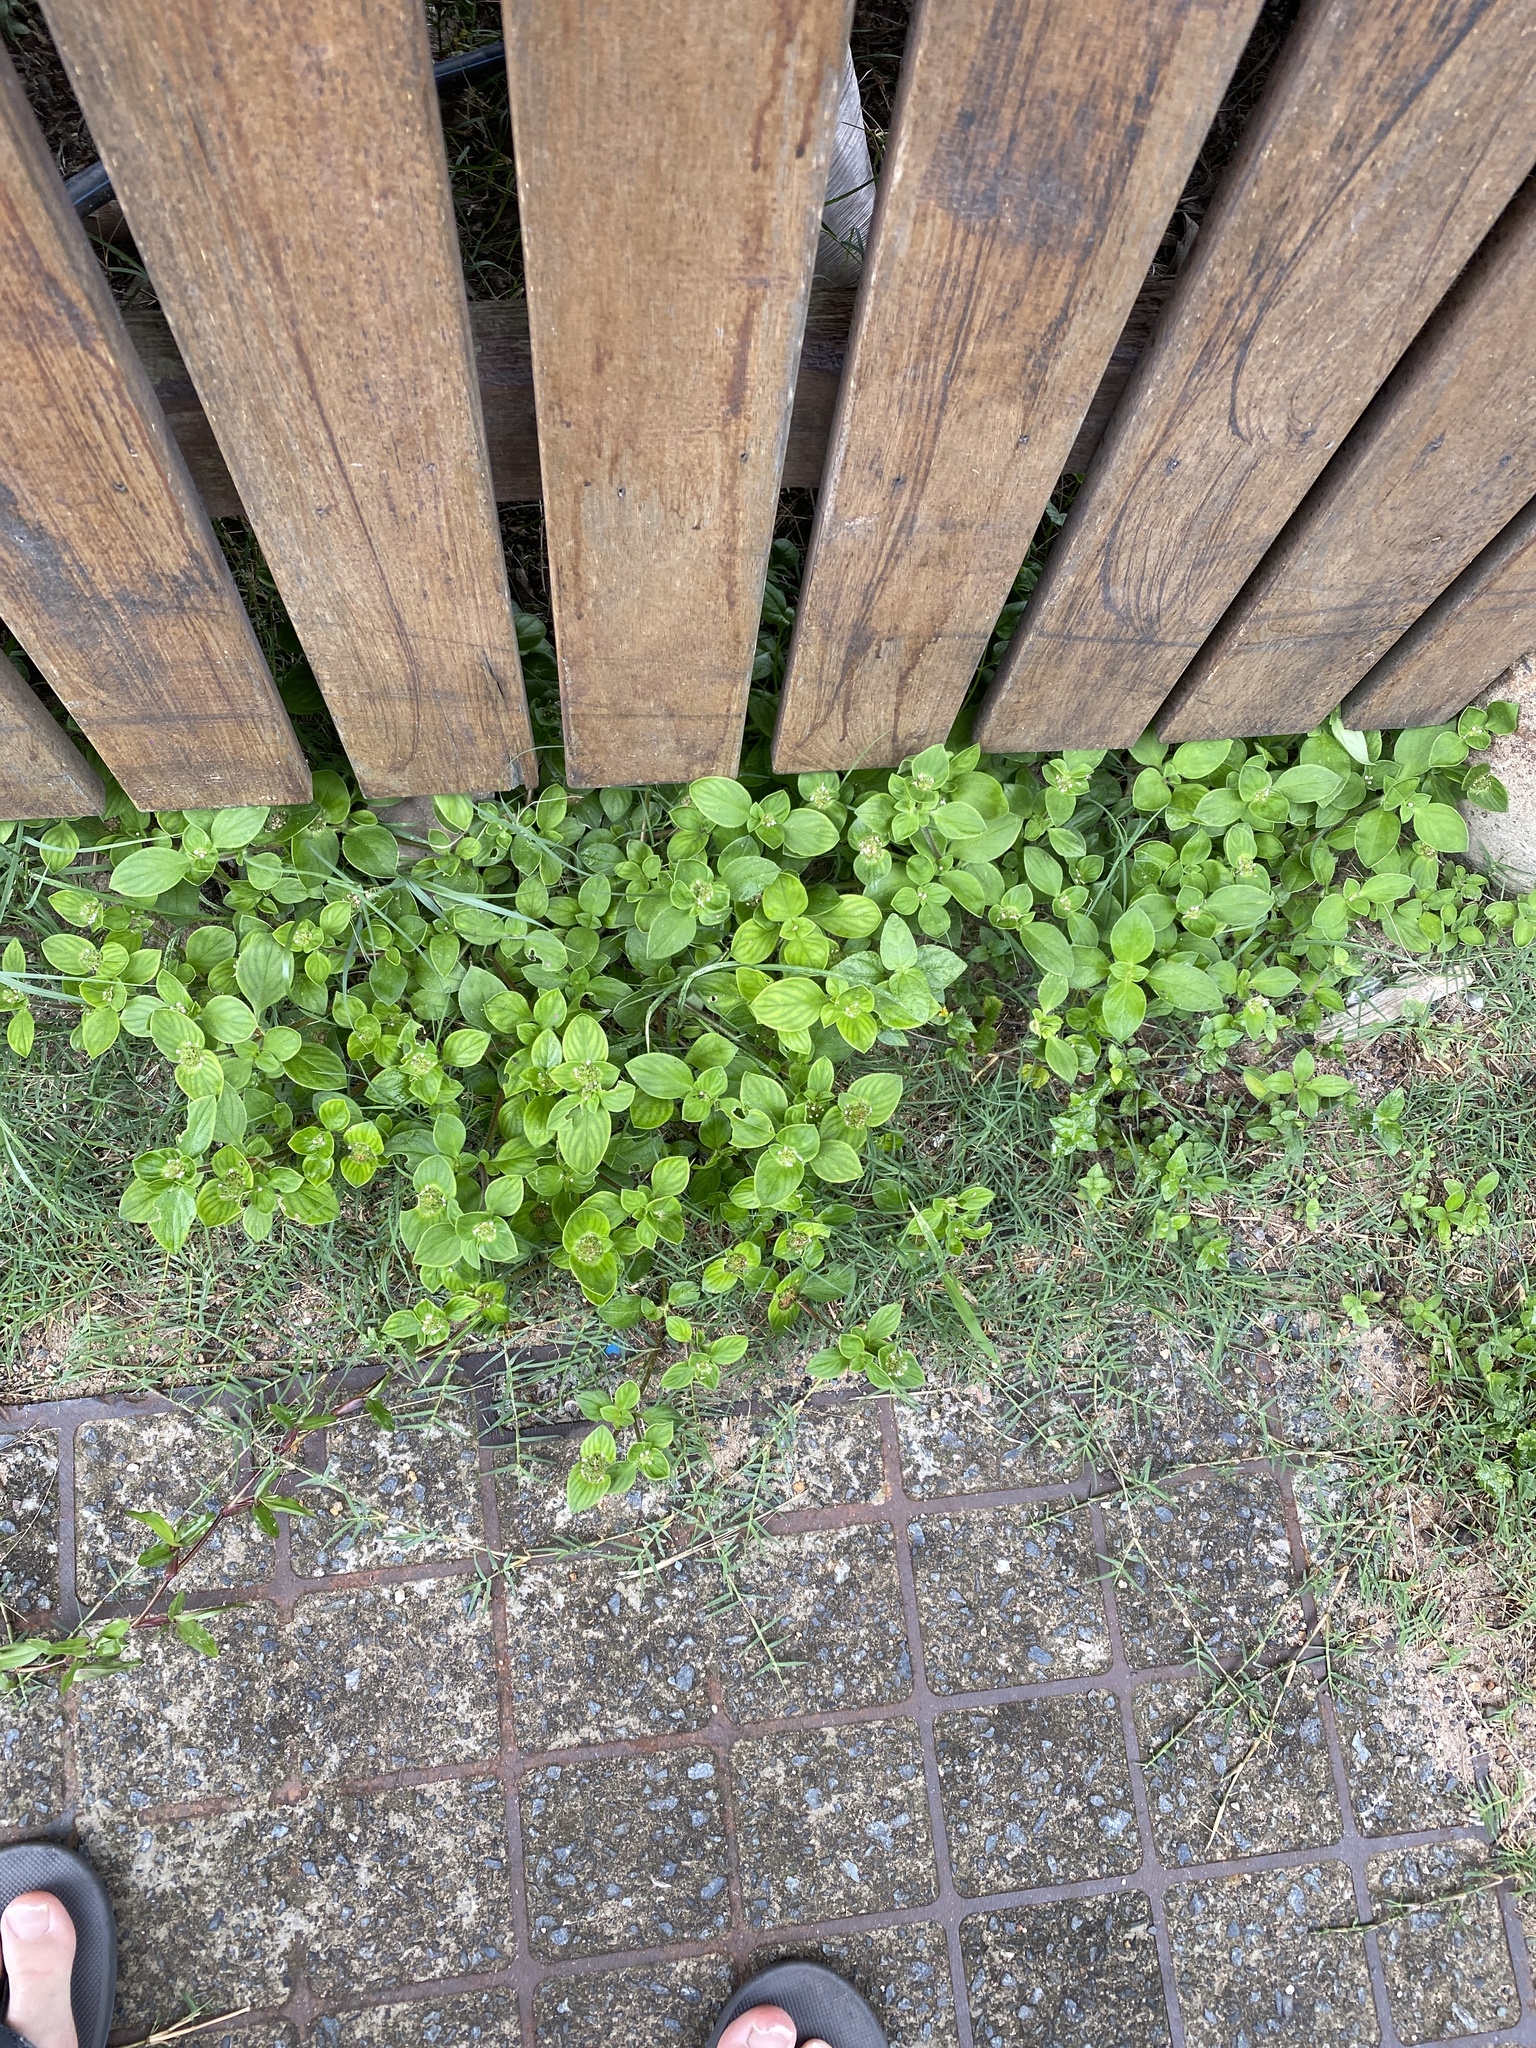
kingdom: Plantae
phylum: Tracheophyta
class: Magnoliopsida
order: Gentianales
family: Rubiaceae
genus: Richardia
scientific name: Richardia brasiliensis
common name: Tropical mexican clover
